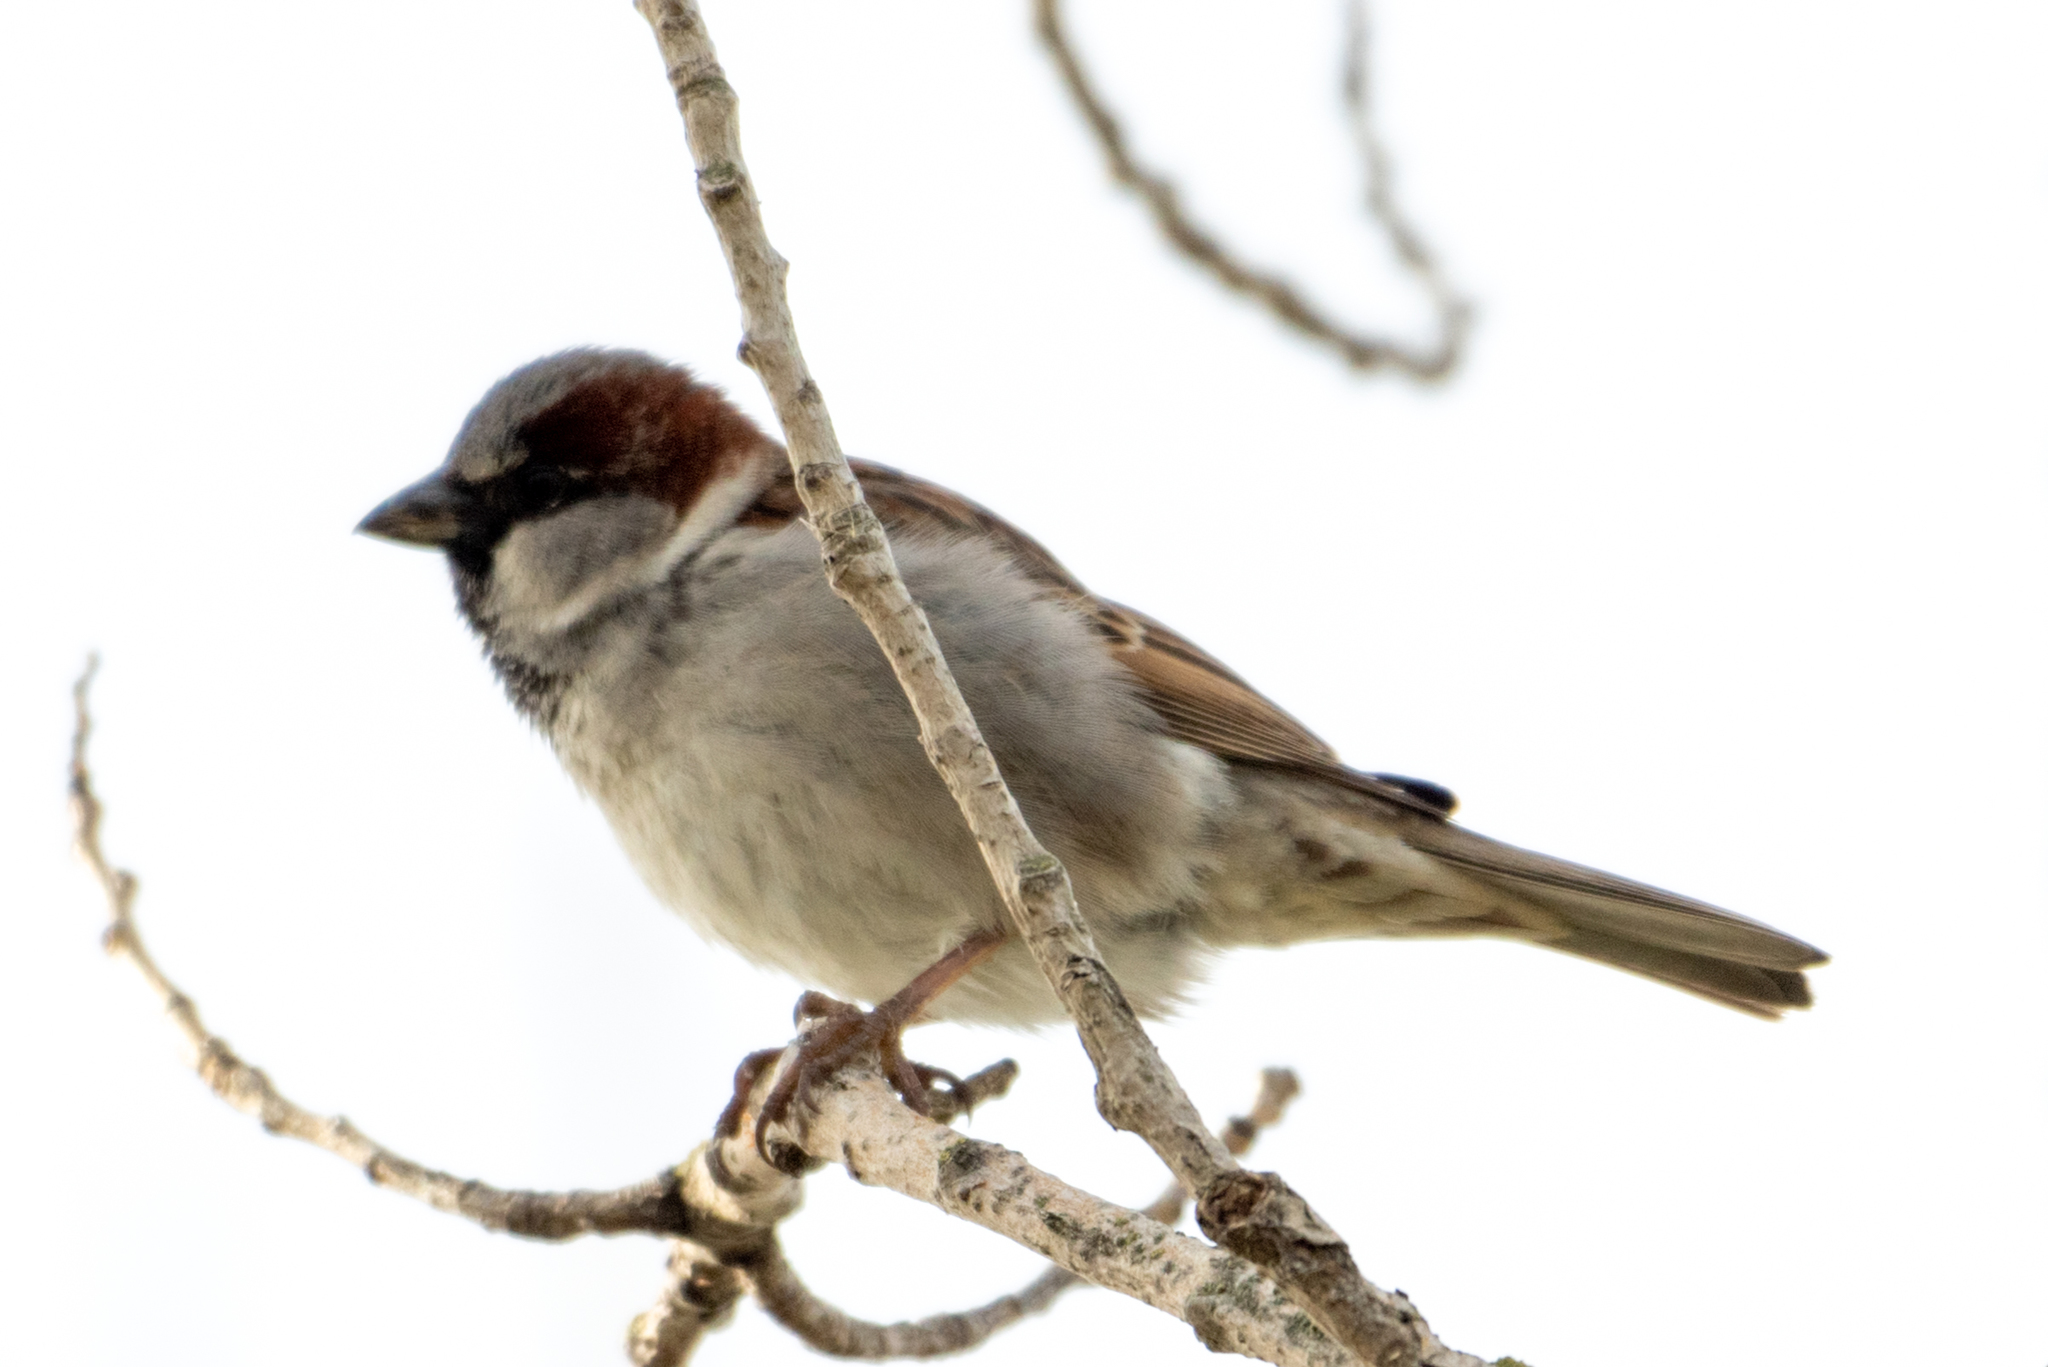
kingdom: Animalia
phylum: Chordata
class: Aves
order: Passeriformes
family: Passeridae
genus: Passer
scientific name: Passer domesticus
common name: House sparrow
